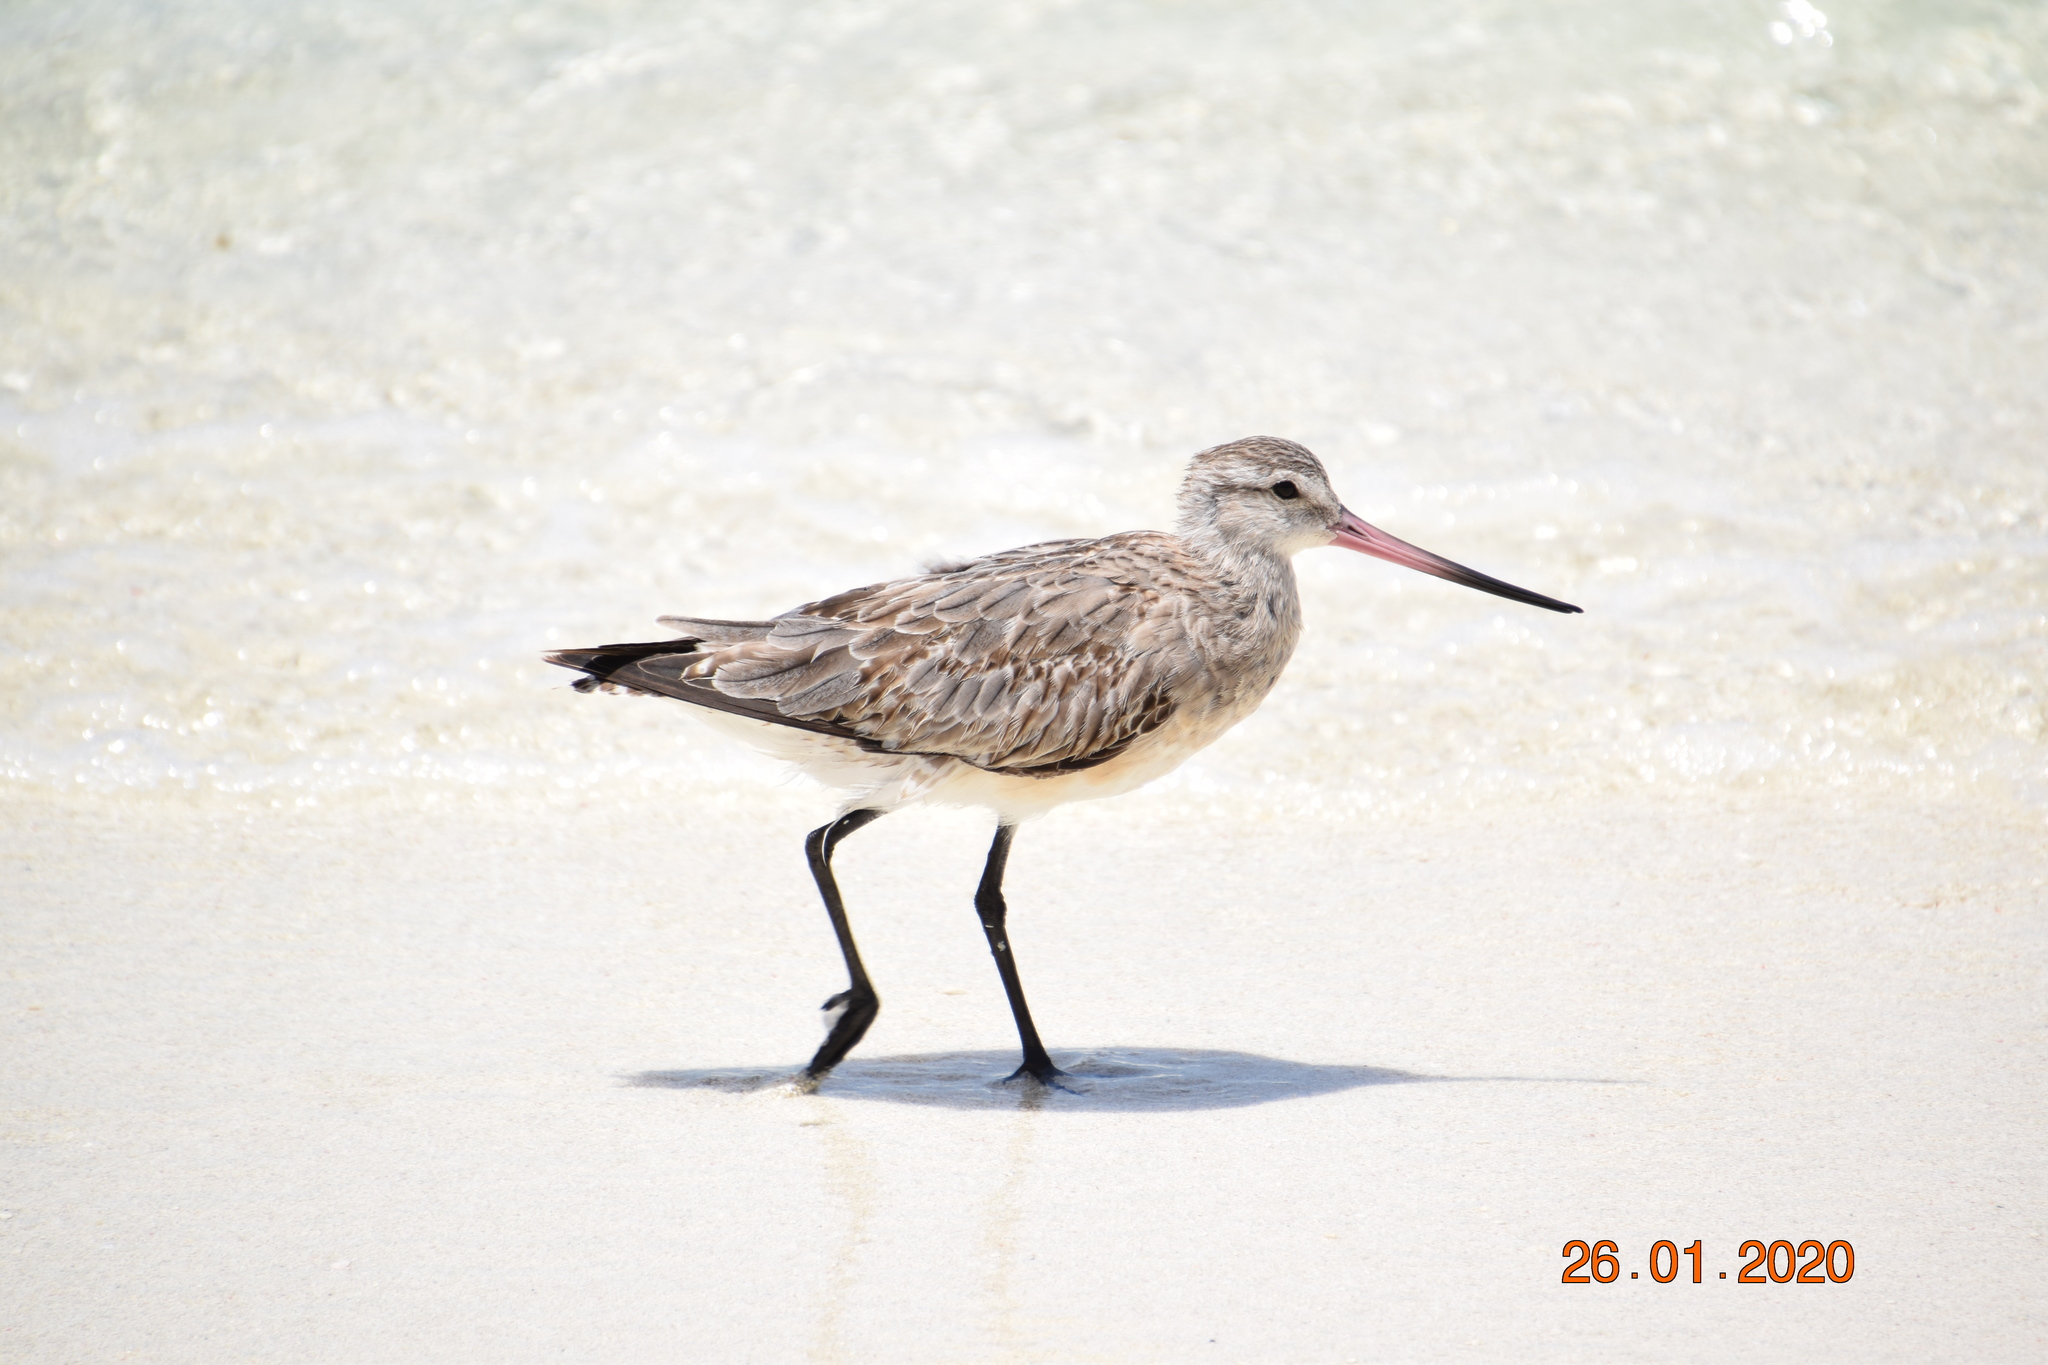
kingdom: Animalia
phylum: Chordata
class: Aves
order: Charadriiformes
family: Scolopacidae
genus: Limosa
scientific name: Limosa lapponica
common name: Bar-tailed godwit
